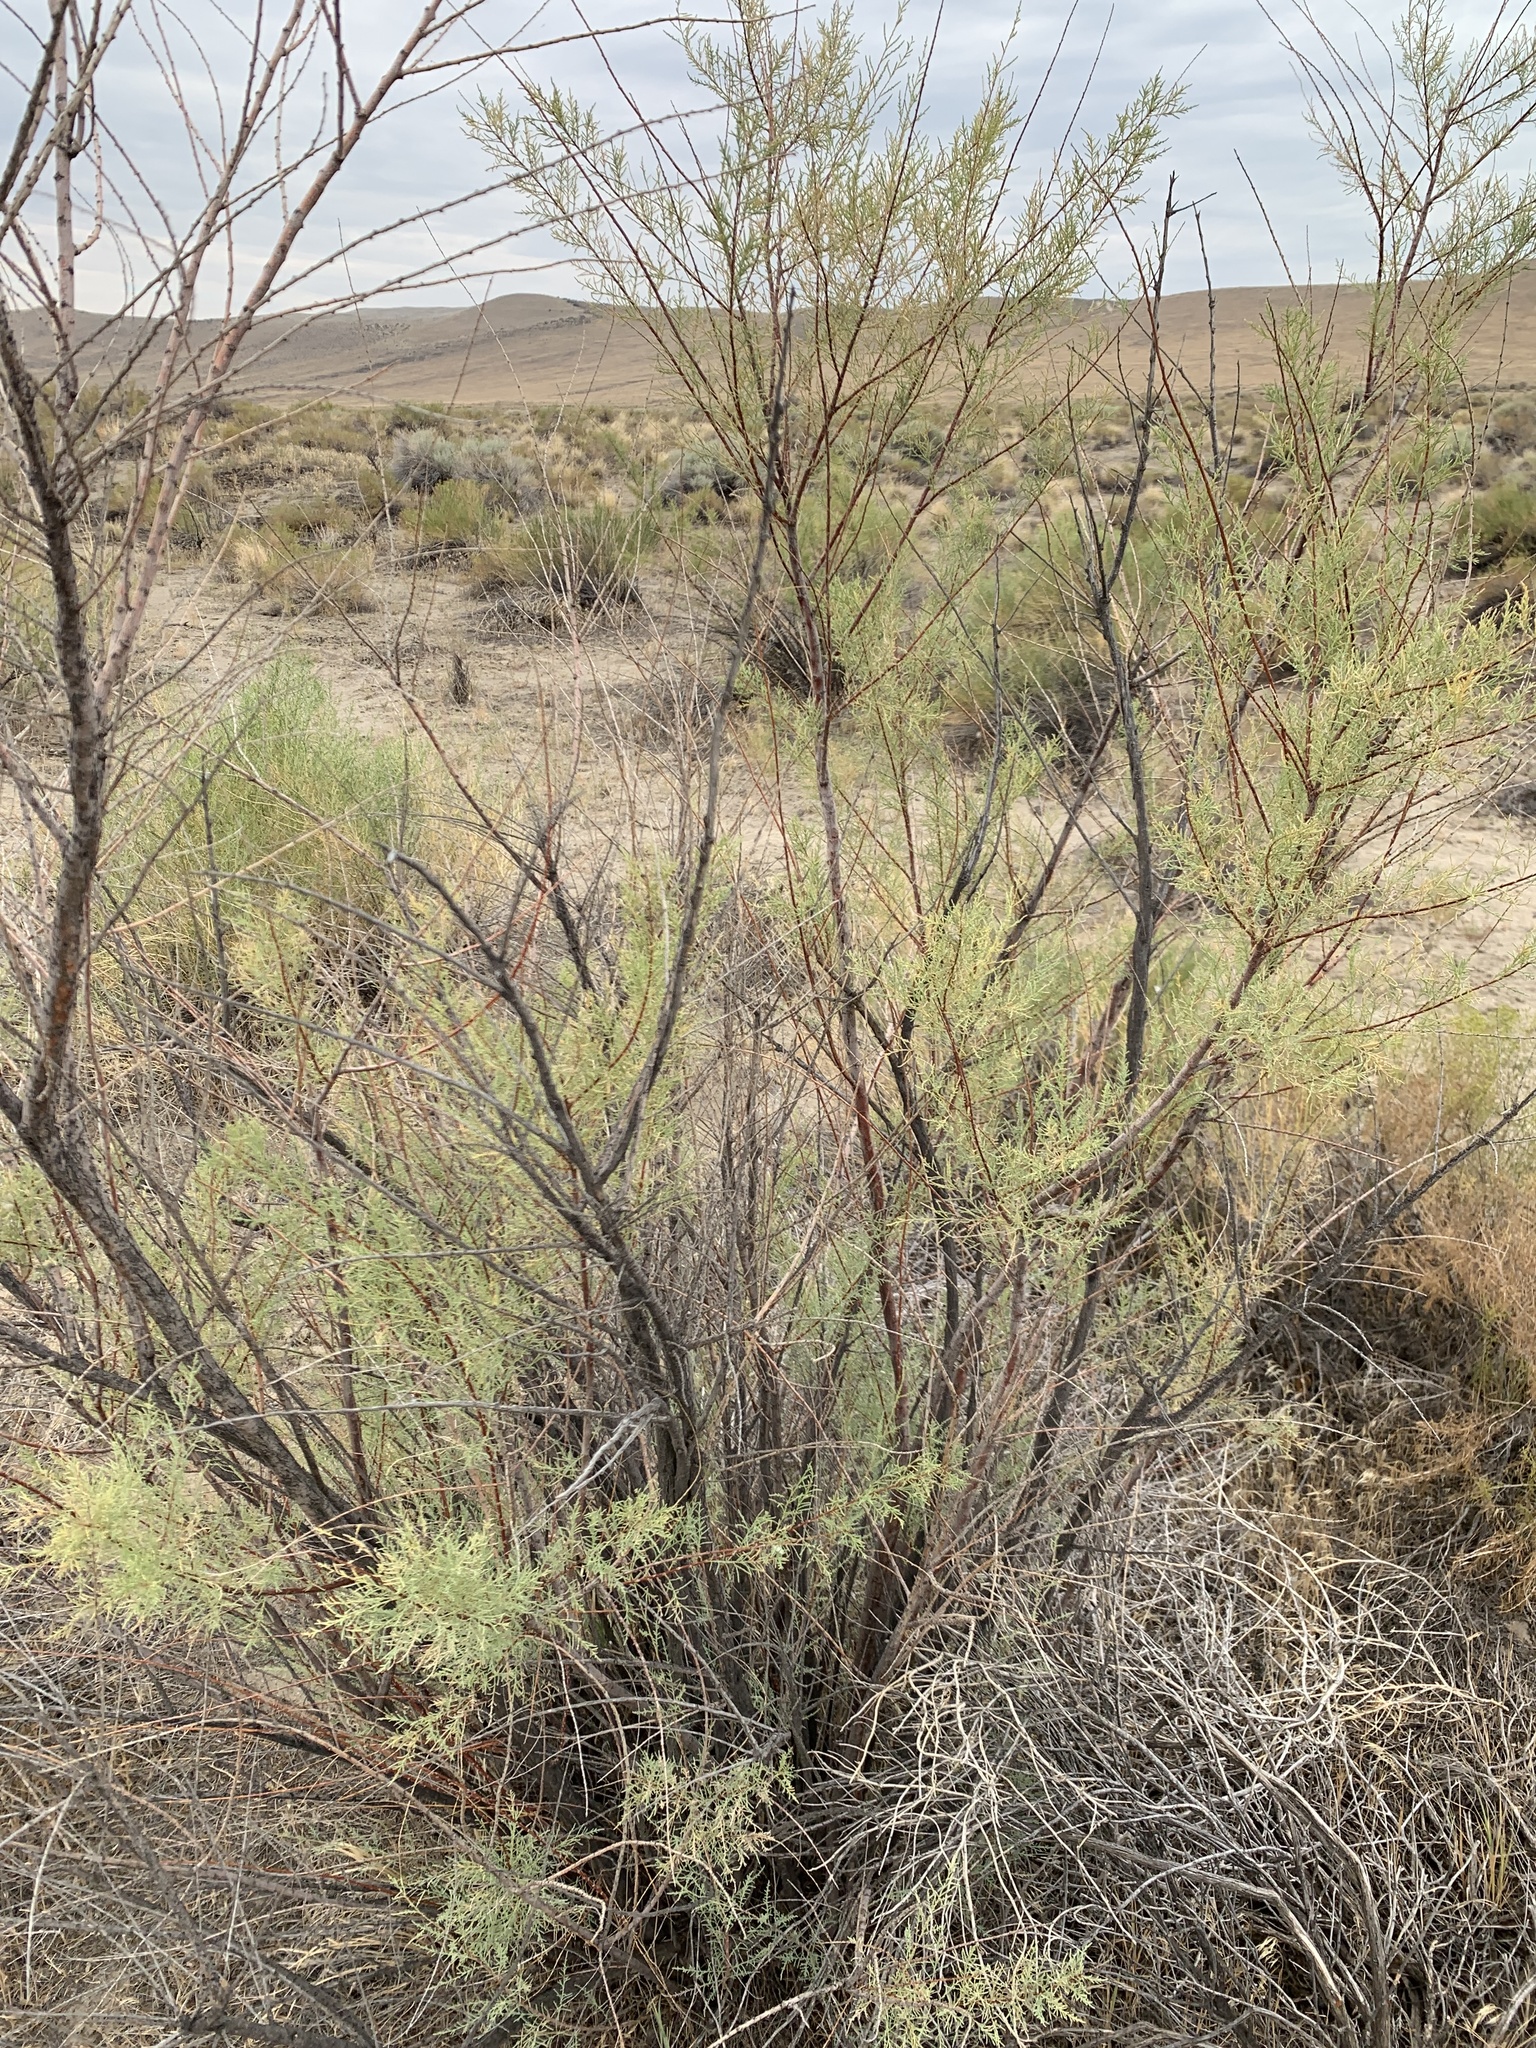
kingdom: Plantae
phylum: Tracheophyta
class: Magnoliopsida
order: Caryophyllales
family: Tamaricaceae
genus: Tamarix
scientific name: Tamarix
